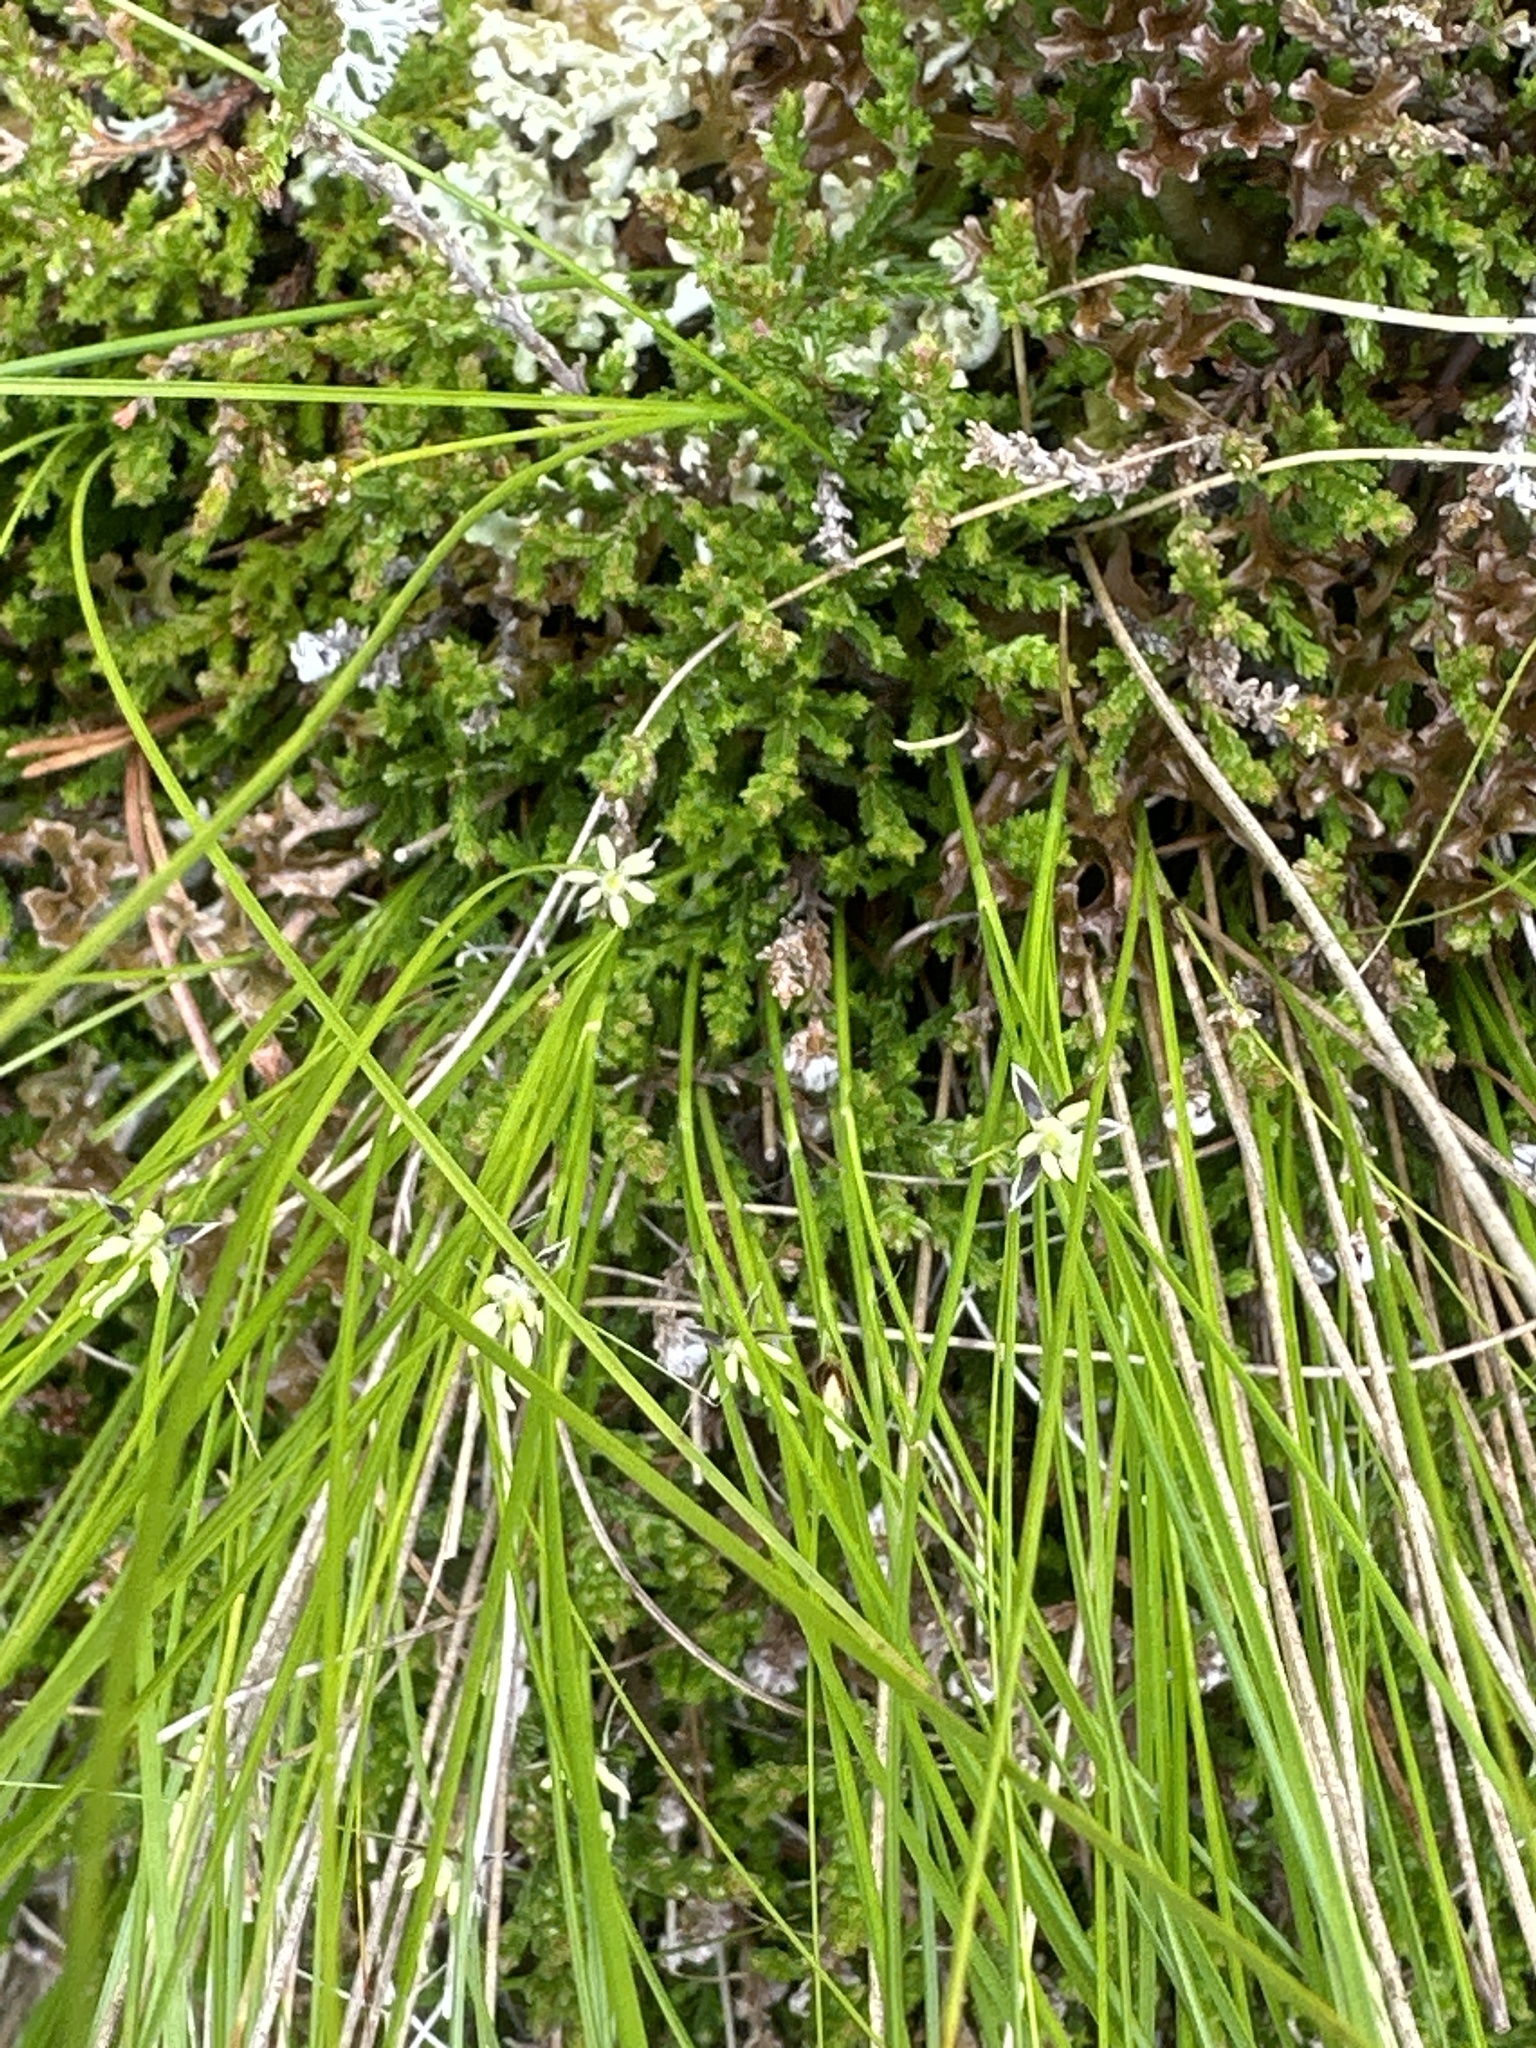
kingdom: Plantae
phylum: Tracheophyta
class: Magnoliopsida
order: Ericales
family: Ericaceae
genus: Calluna
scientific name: Calluna vulgaris
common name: Heather
